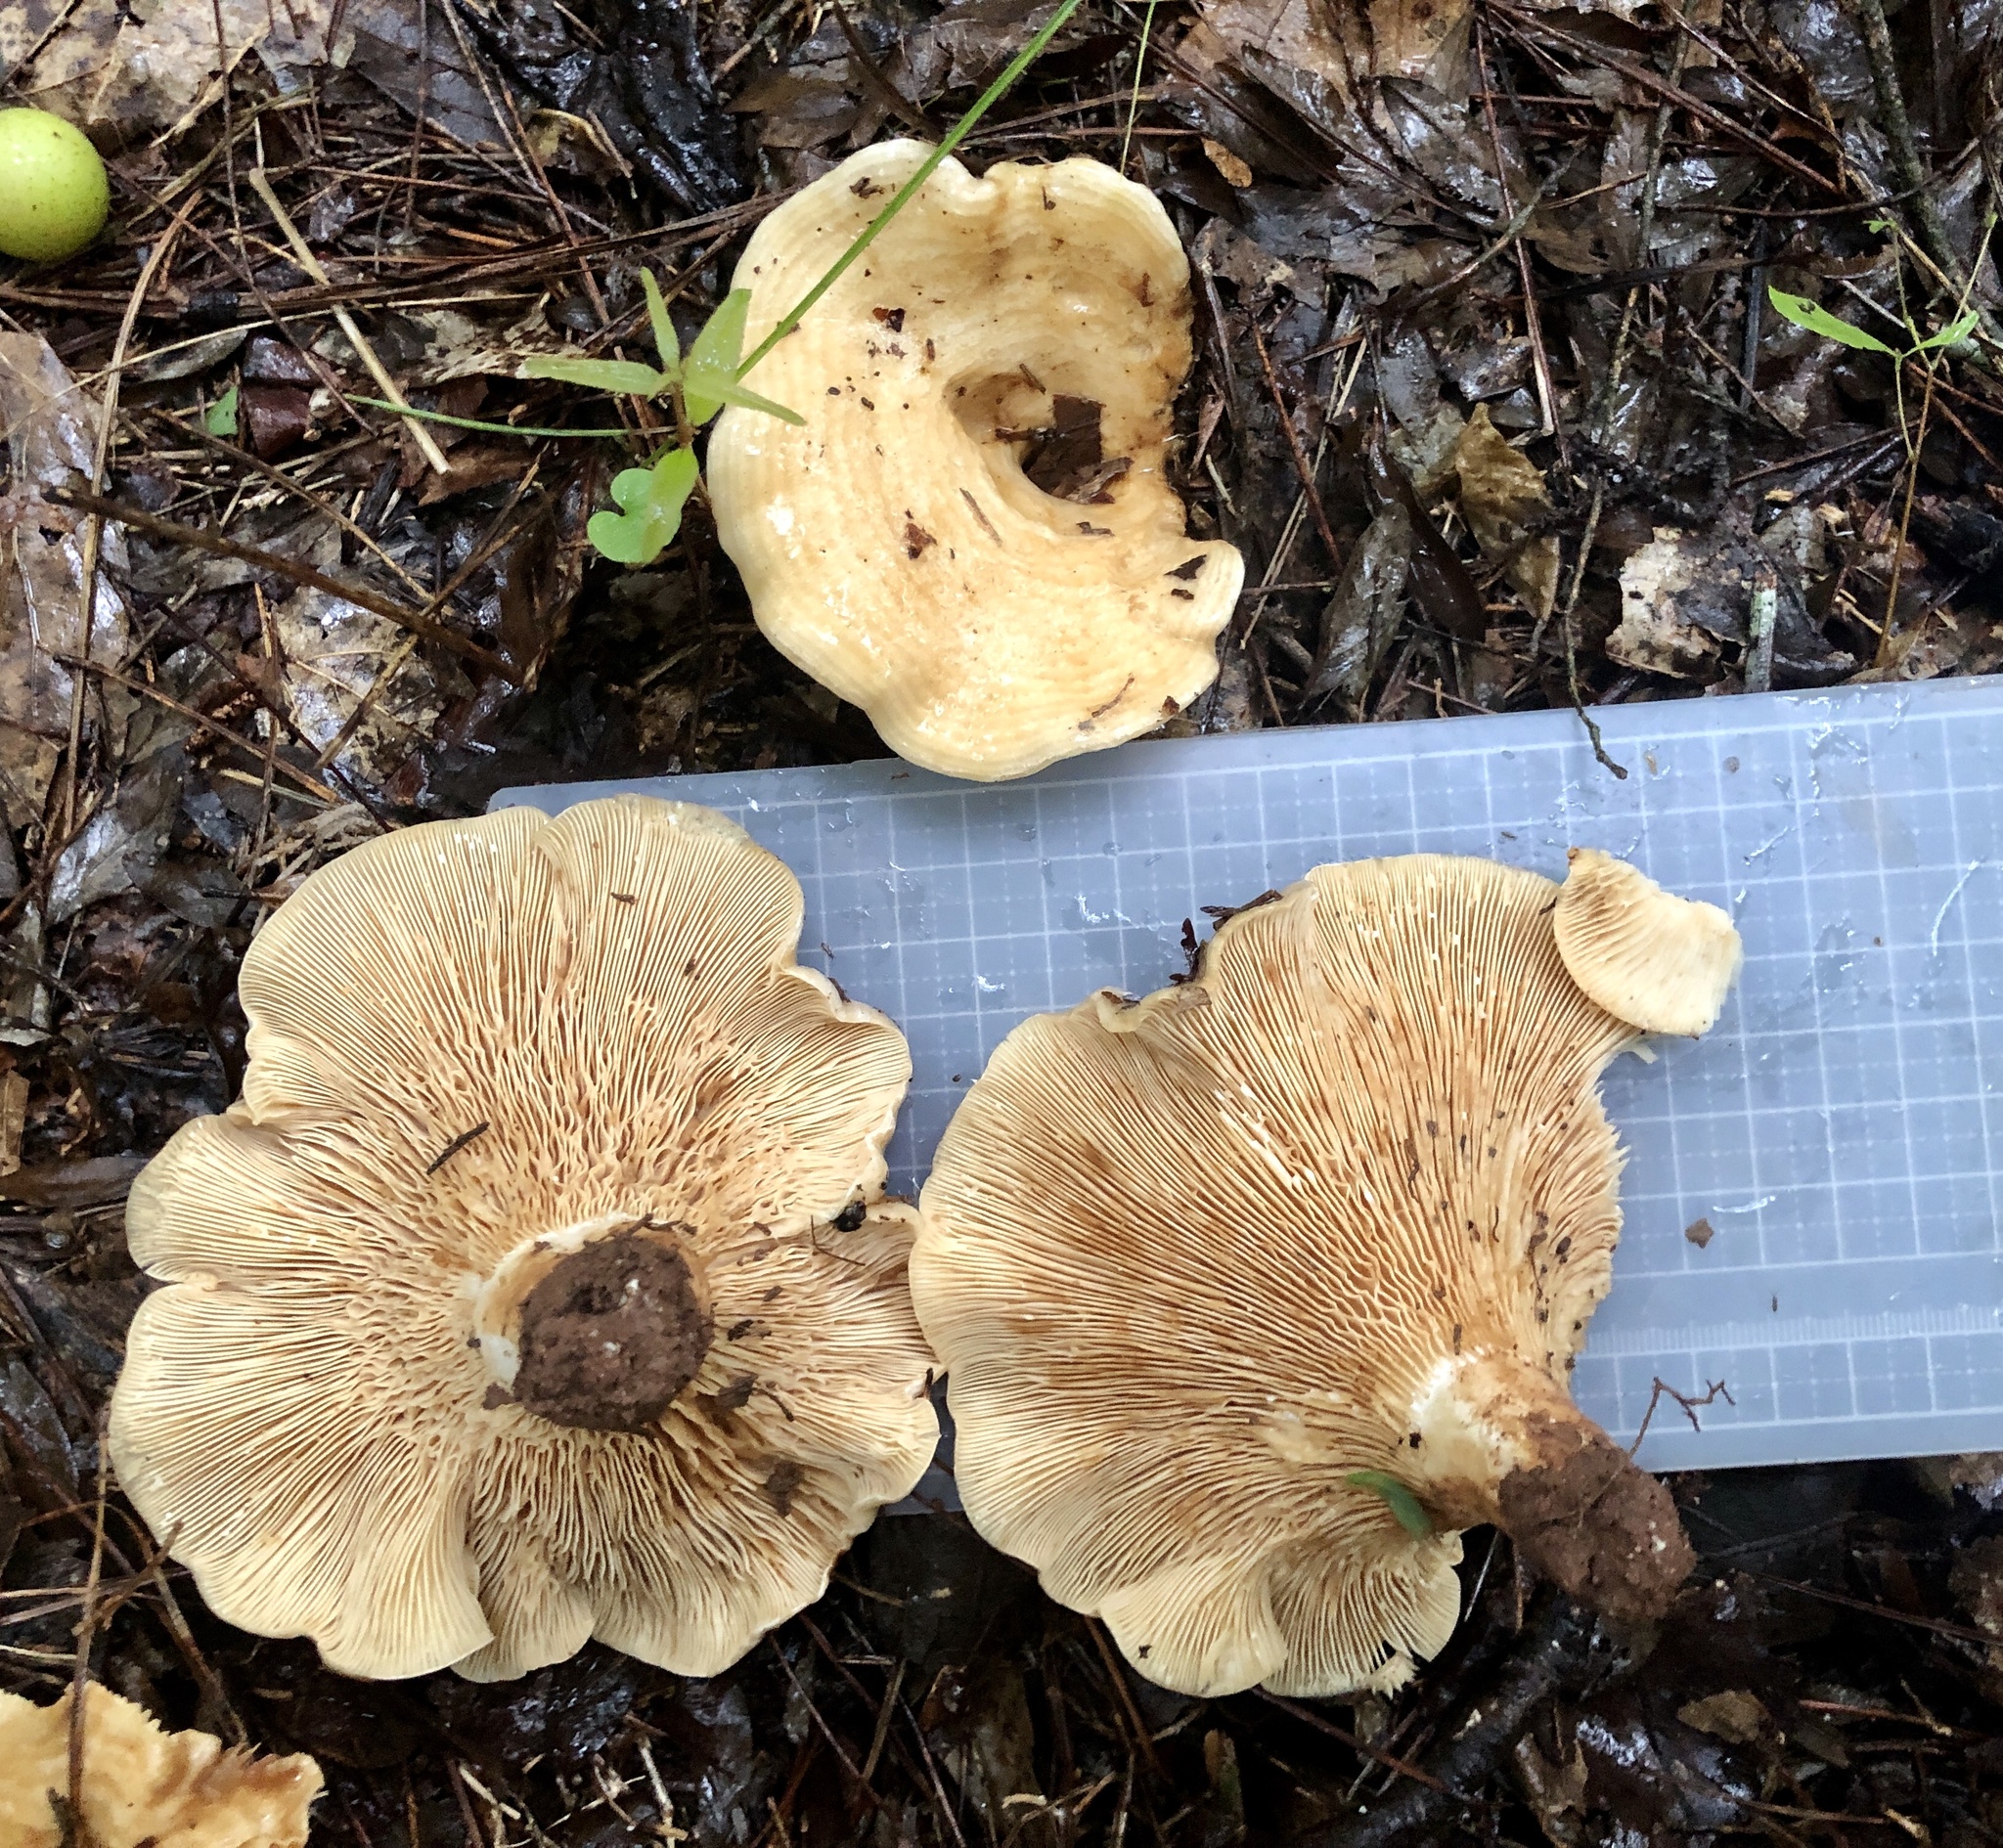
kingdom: Fungi
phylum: Basidiomycota
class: Agaricomycetes
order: Russulales
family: Russulaceae
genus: Lactarius
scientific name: Lactarius yazooensis
